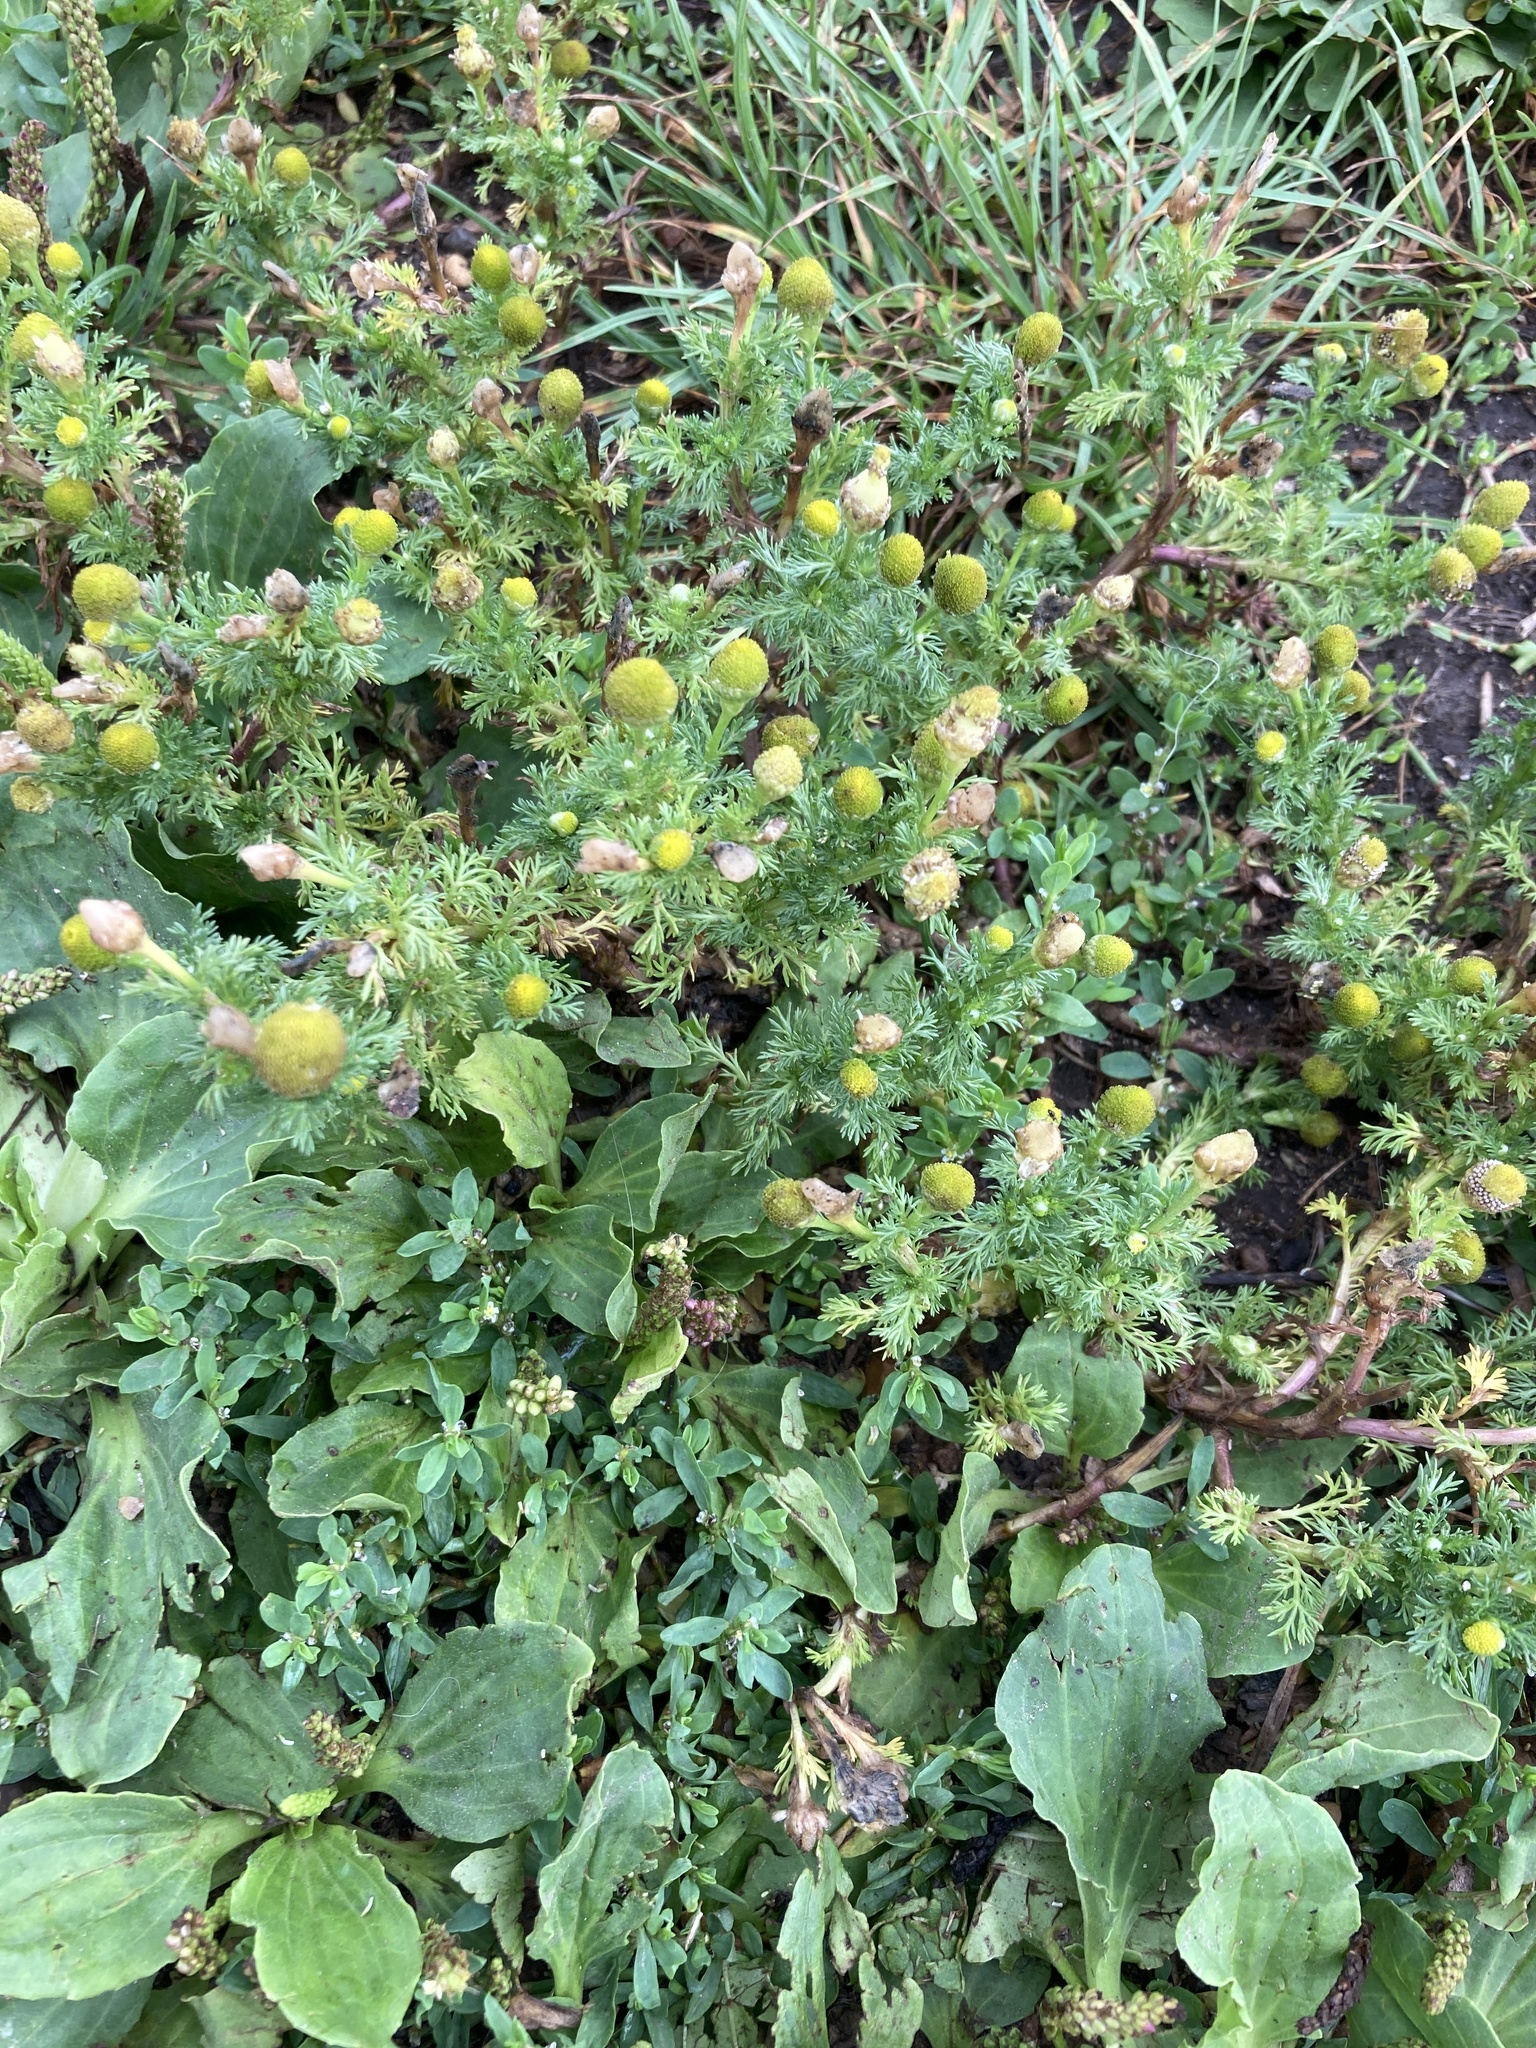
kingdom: Plantae
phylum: Tracheophyta
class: Magnoliopsida
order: Asterales
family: Asteraceae
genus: Matricaria
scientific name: Matricaria discoidea
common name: Disc mayweed
